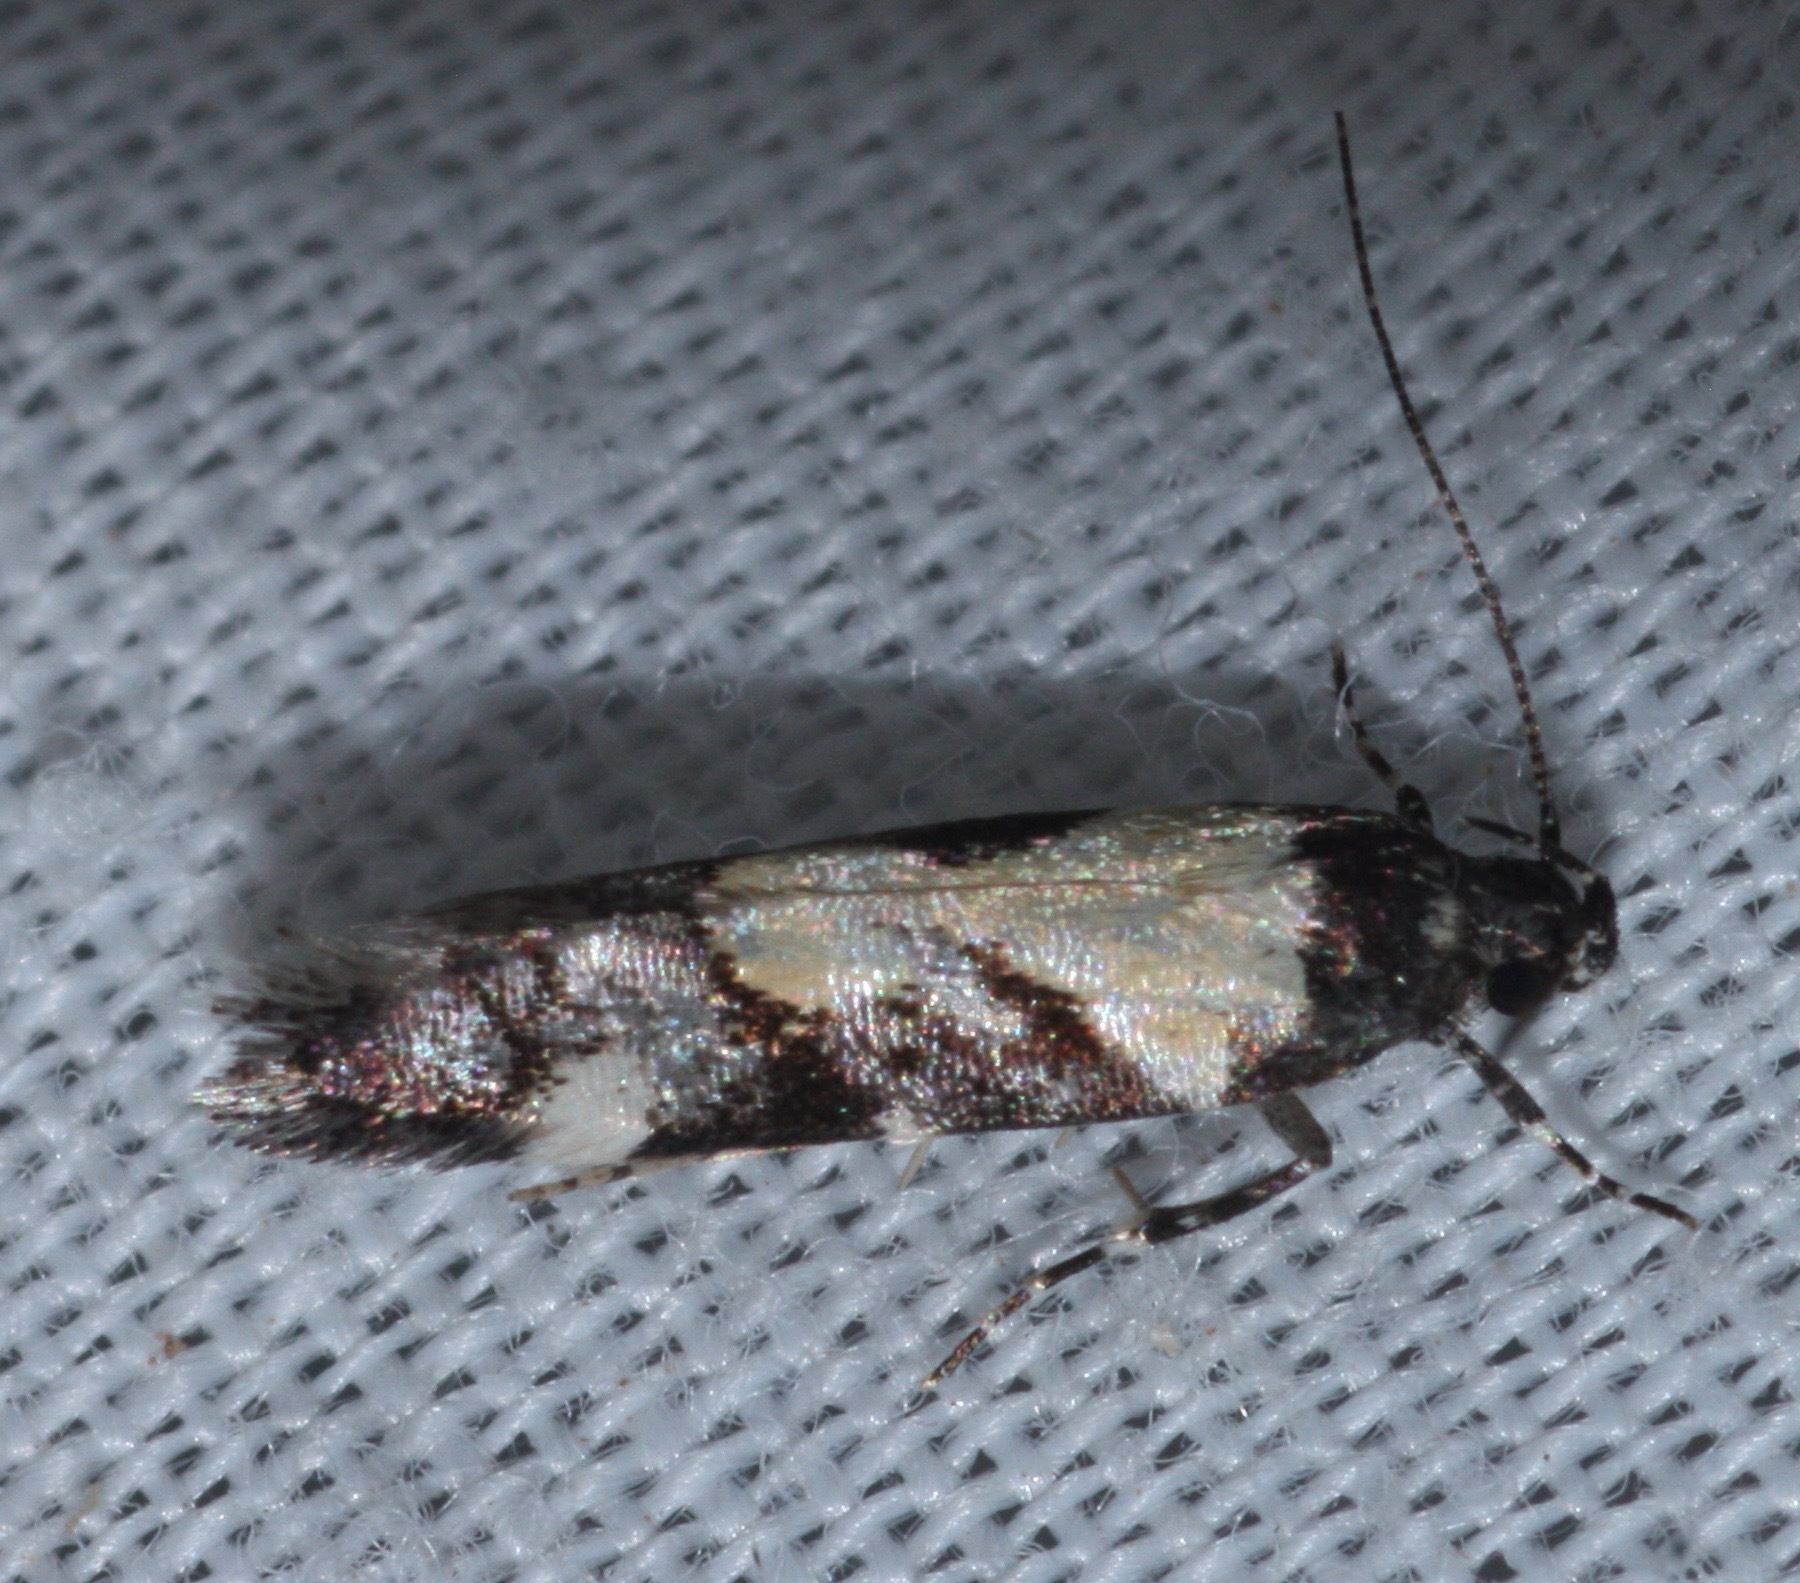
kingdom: Animalia
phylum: Arthropoda
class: Insecta
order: Lepidoptera
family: Gelechiidae
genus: Stegasta
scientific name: Stegasta bosqueella
